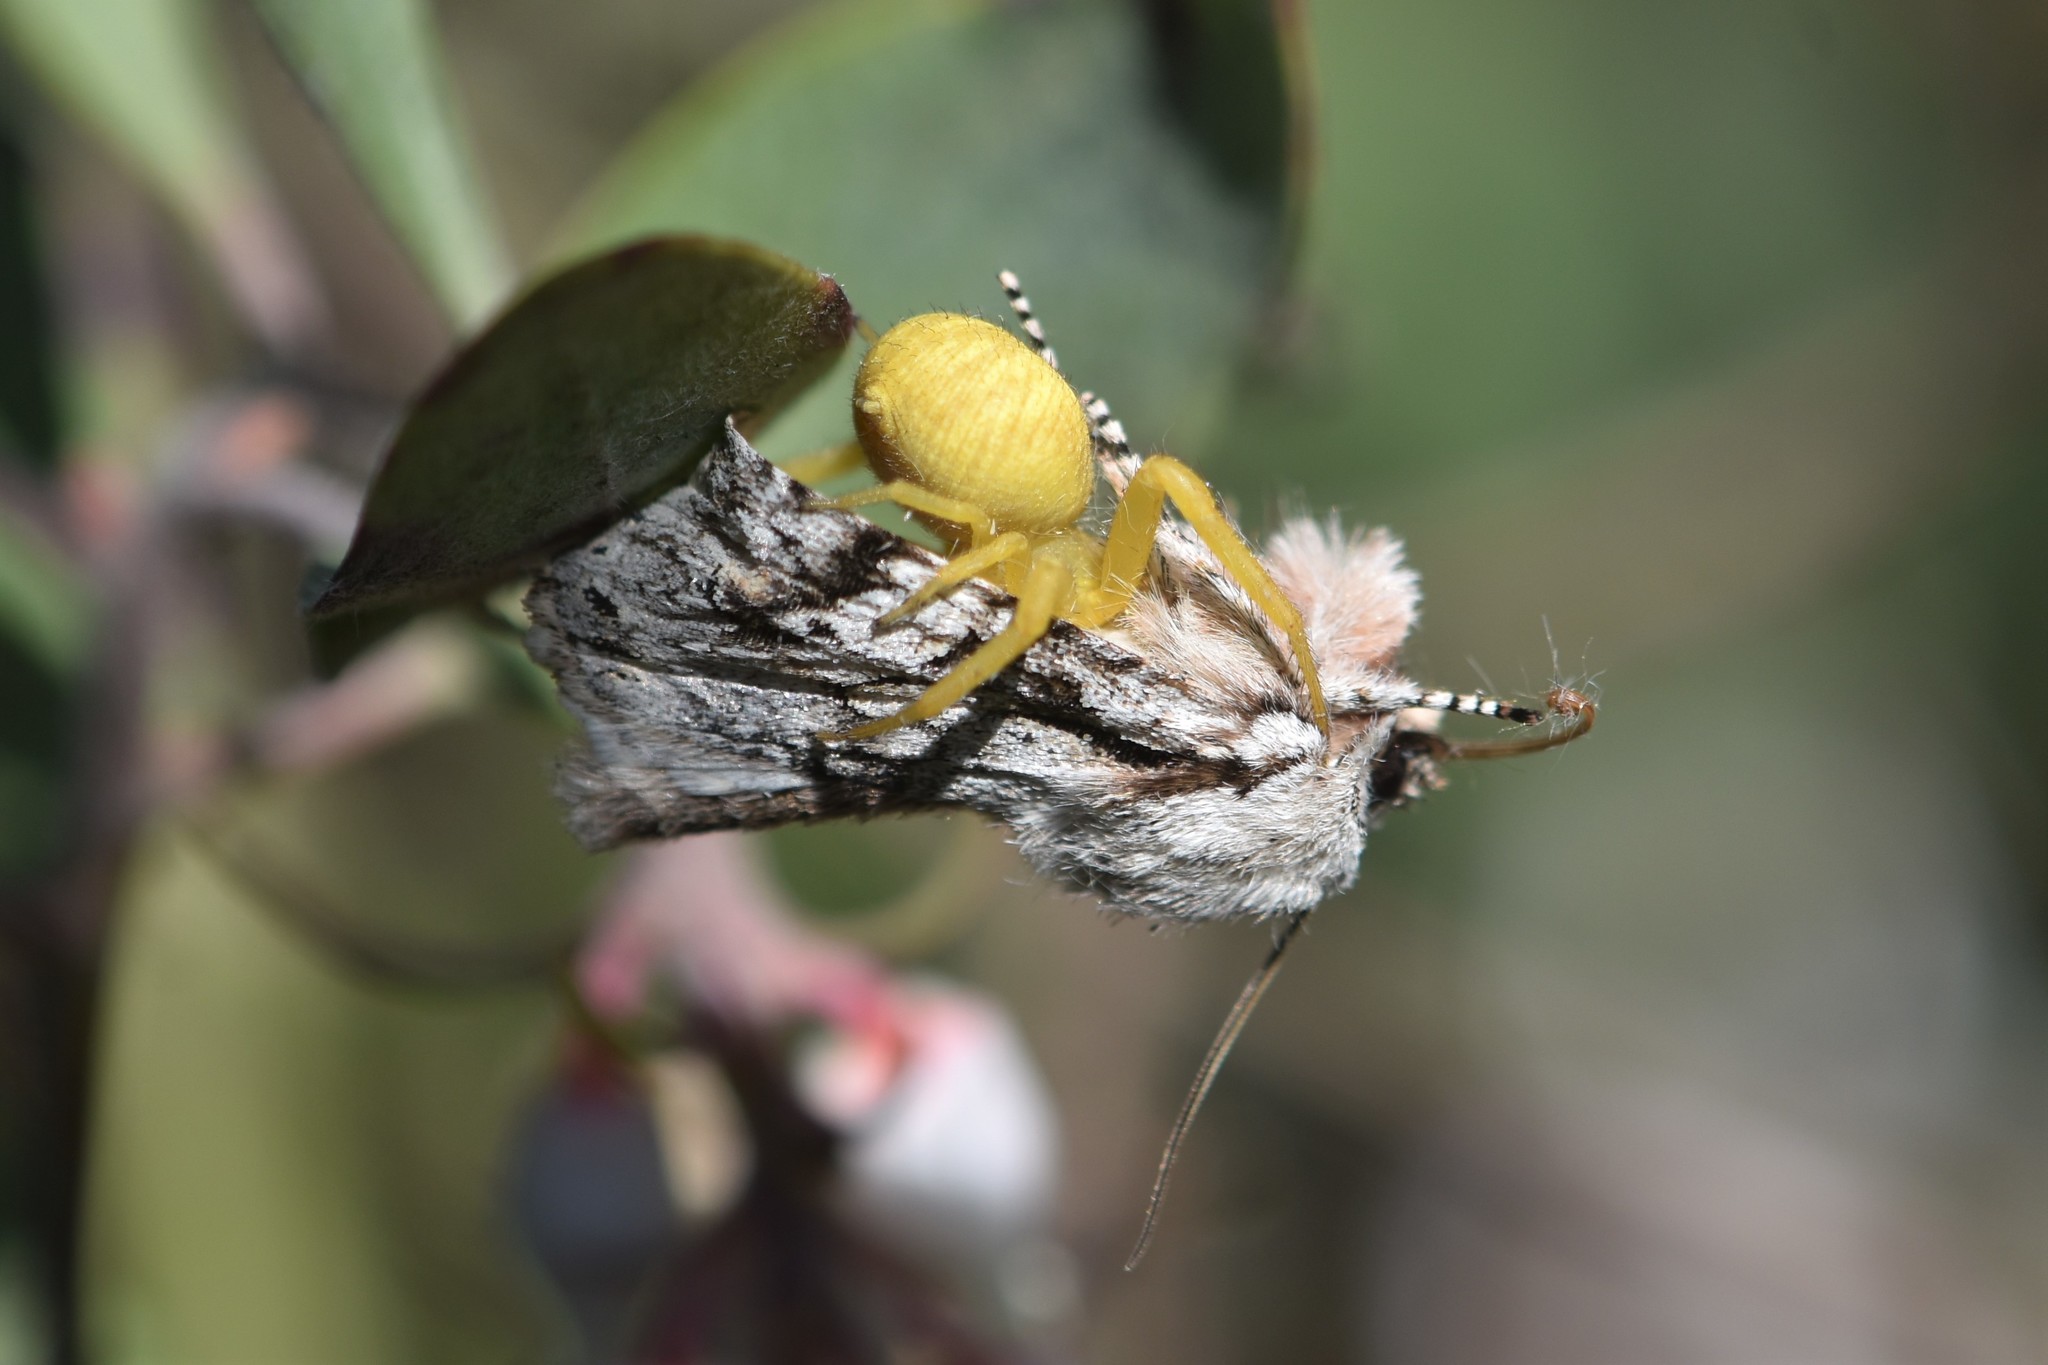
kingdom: Animalia
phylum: Arthropoda
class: Arachnida
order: Araneae
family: Thomisidae
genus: Misumena
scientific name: Misumena vatia
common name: Goldenrod crab spider
